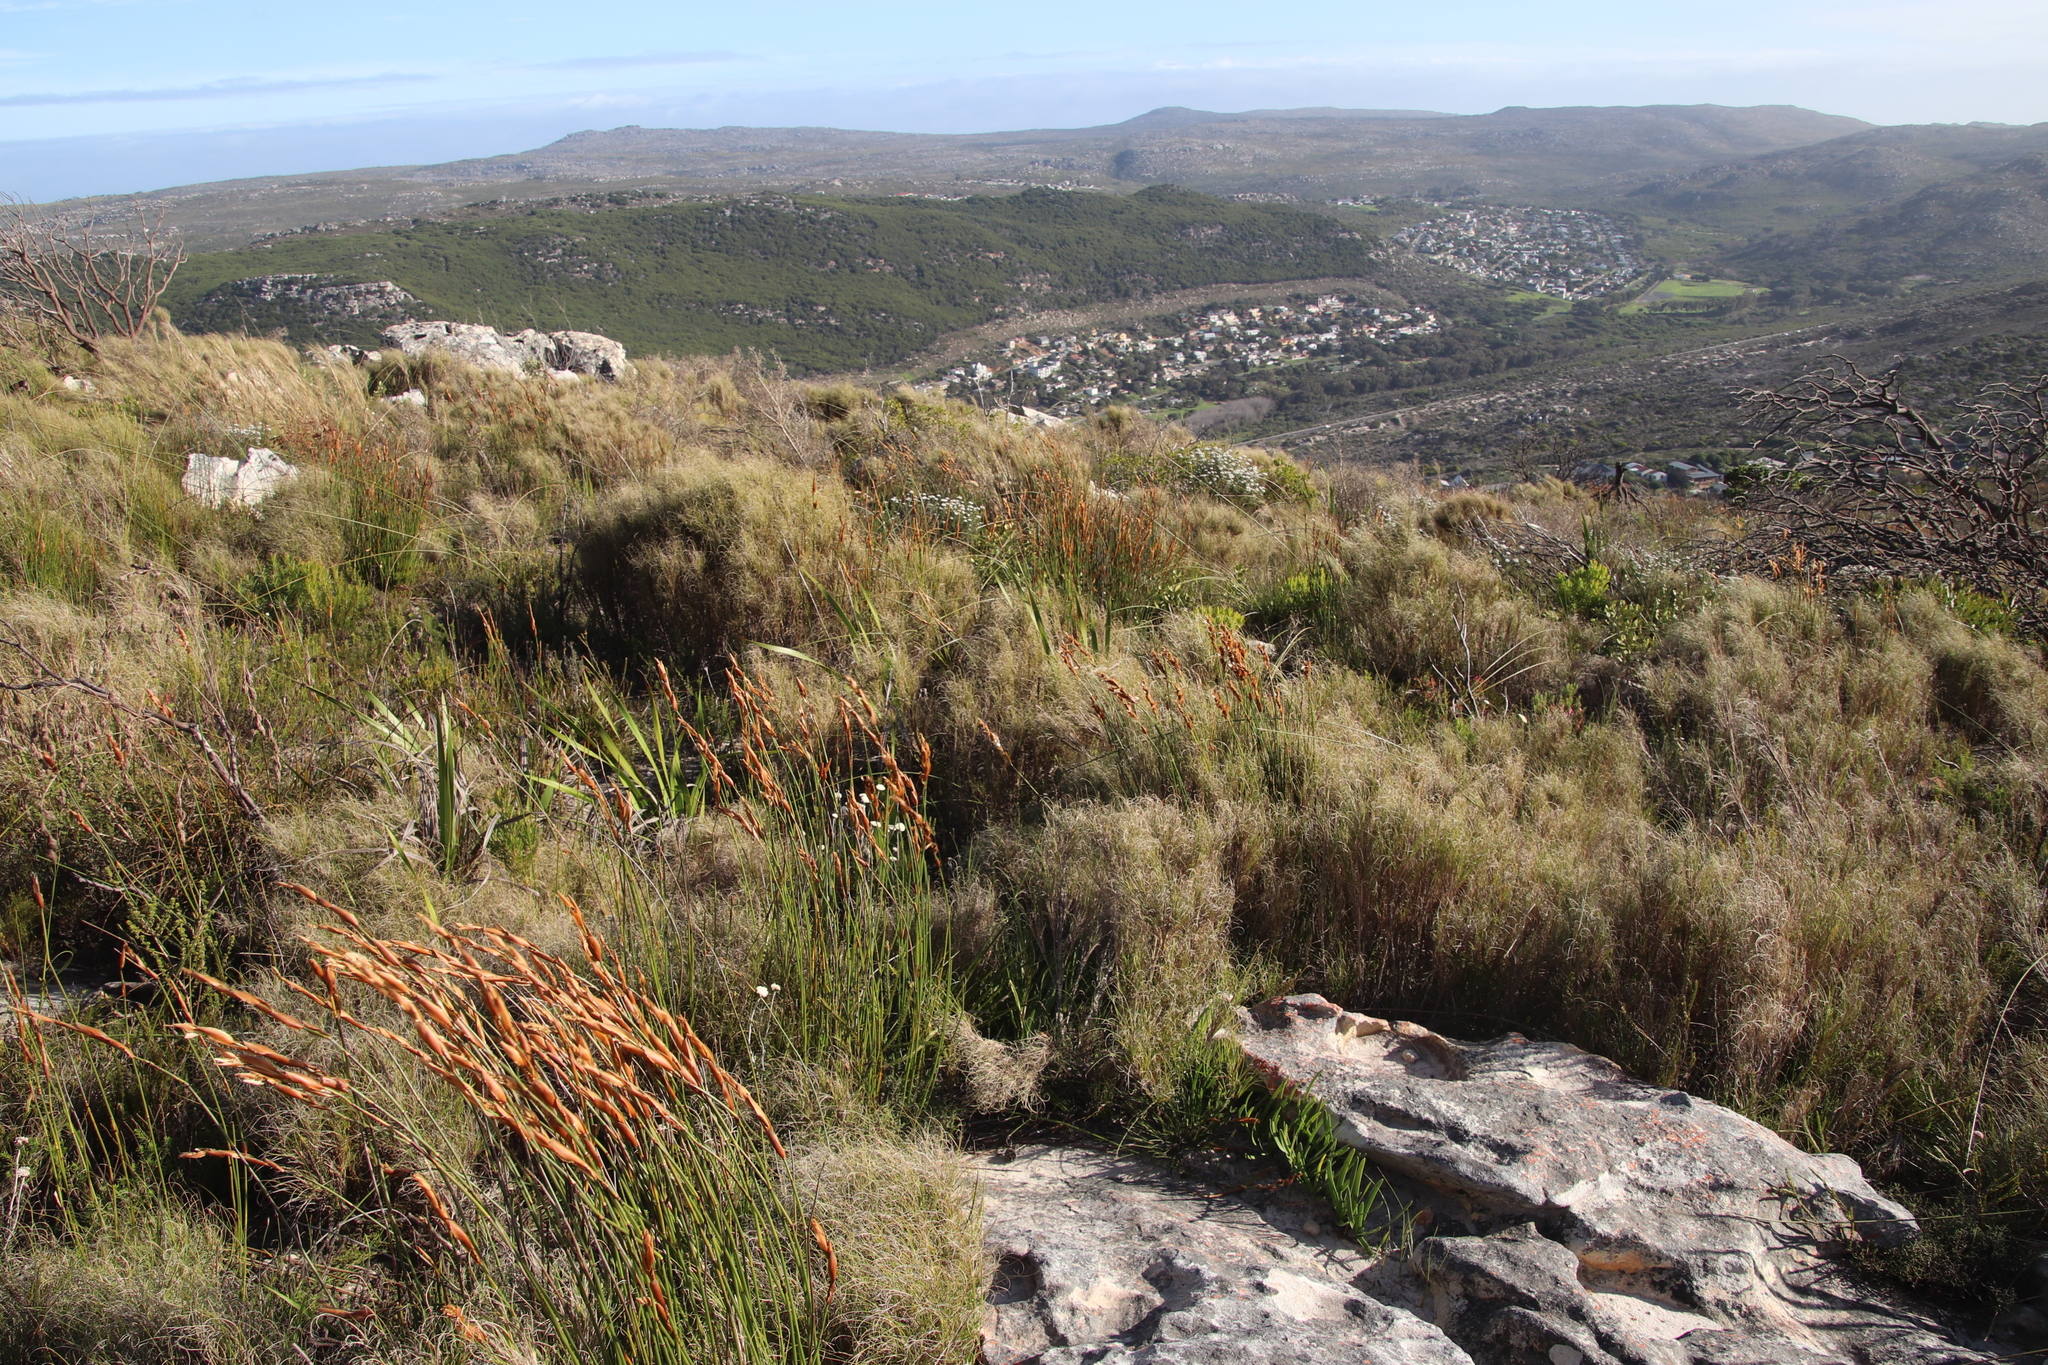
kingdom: Plantae
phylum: Tracheophyta
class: Liliopsida
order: Poales
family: Restionaceae
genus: Elegia
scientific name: Elegia racemosa
